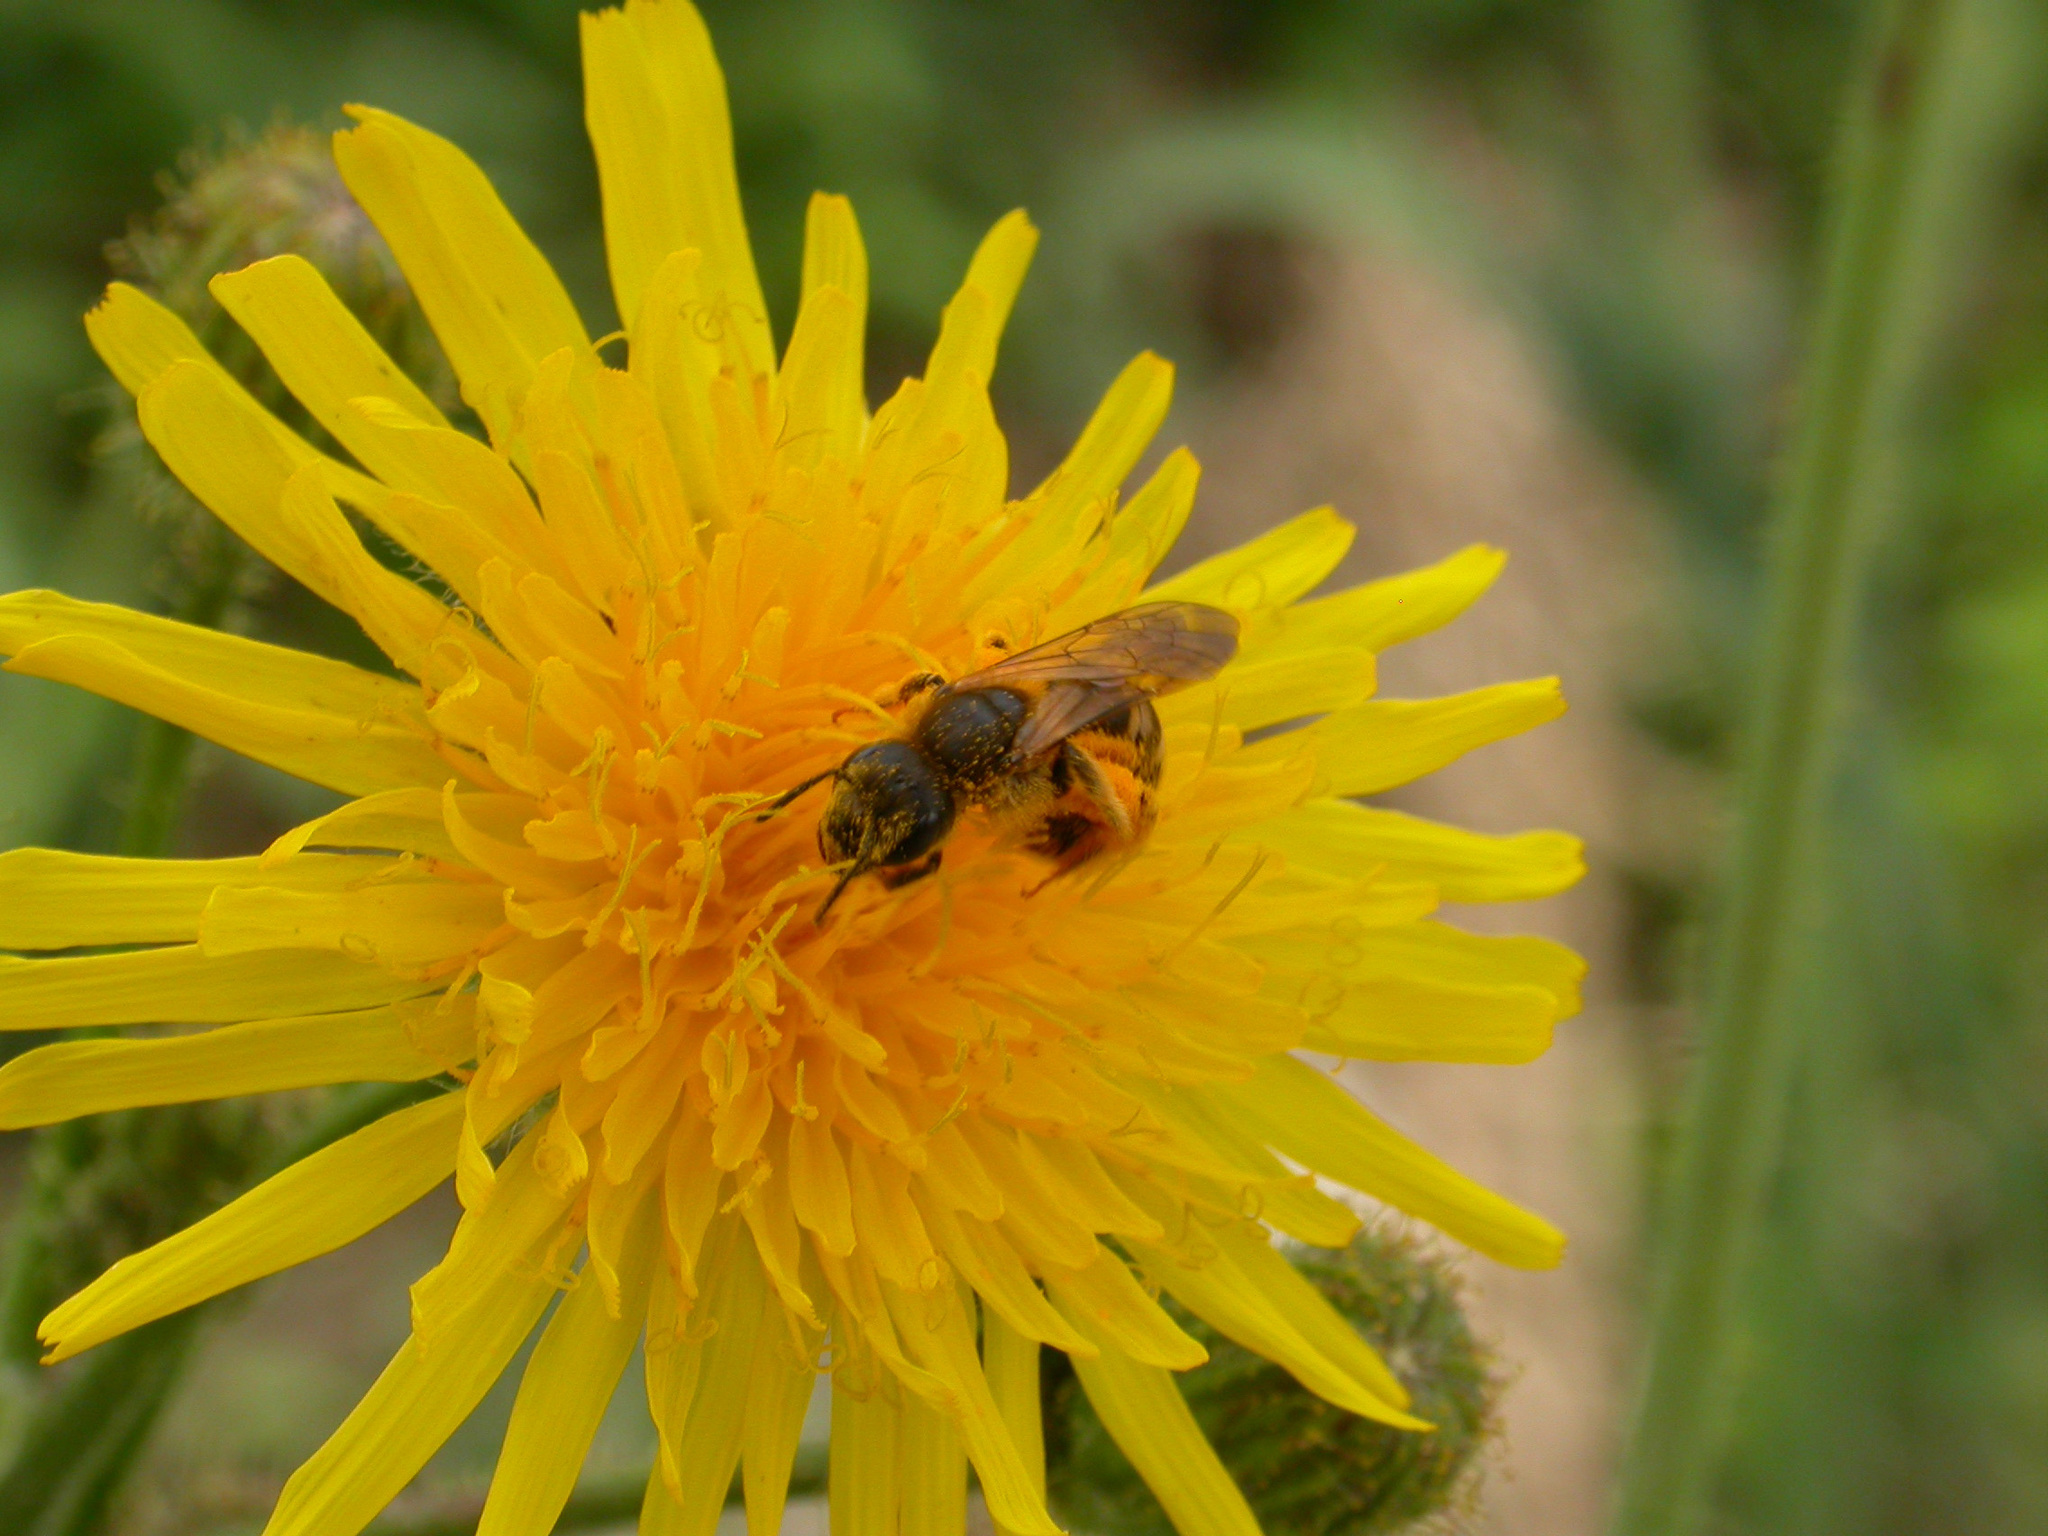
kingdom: Animalia
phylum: Arthropoda
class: Insecta
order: Hymenoptera
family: Halictidae
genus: Halictus
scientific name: Halictus scabiosae
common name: Great banded furrow bee
